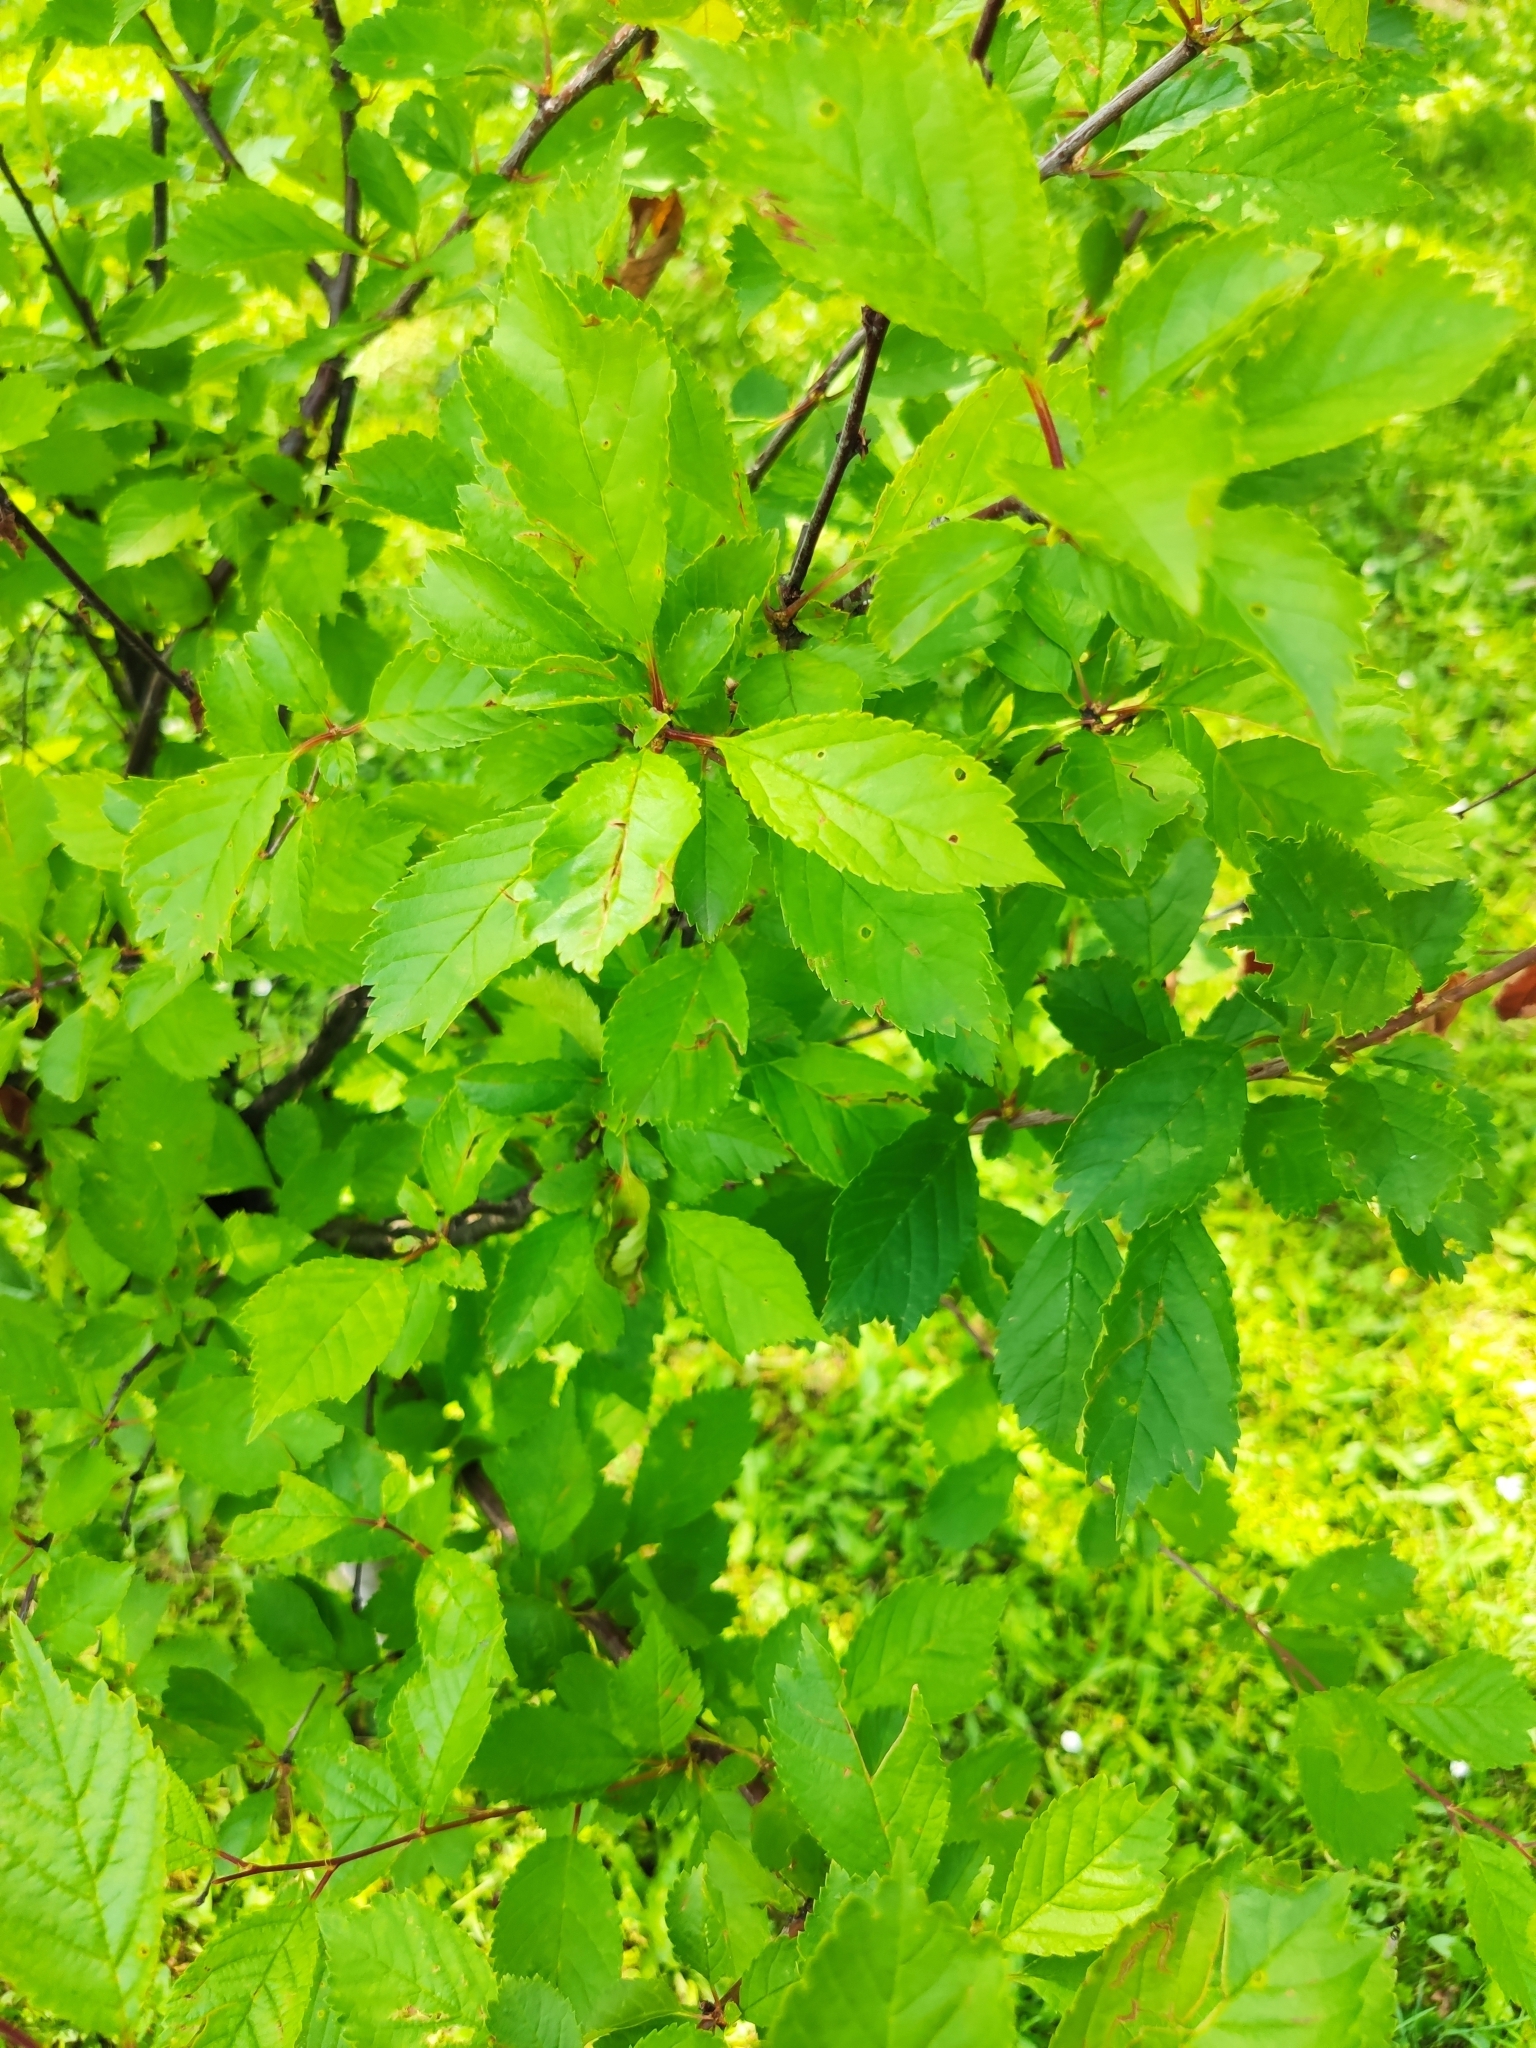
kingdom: Plantae
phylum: Tracheophyta
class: Magnoliopsida
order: Rosales
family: Rosaceae
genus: Prunus
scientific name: Prunus triloba
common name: Flowering plum
